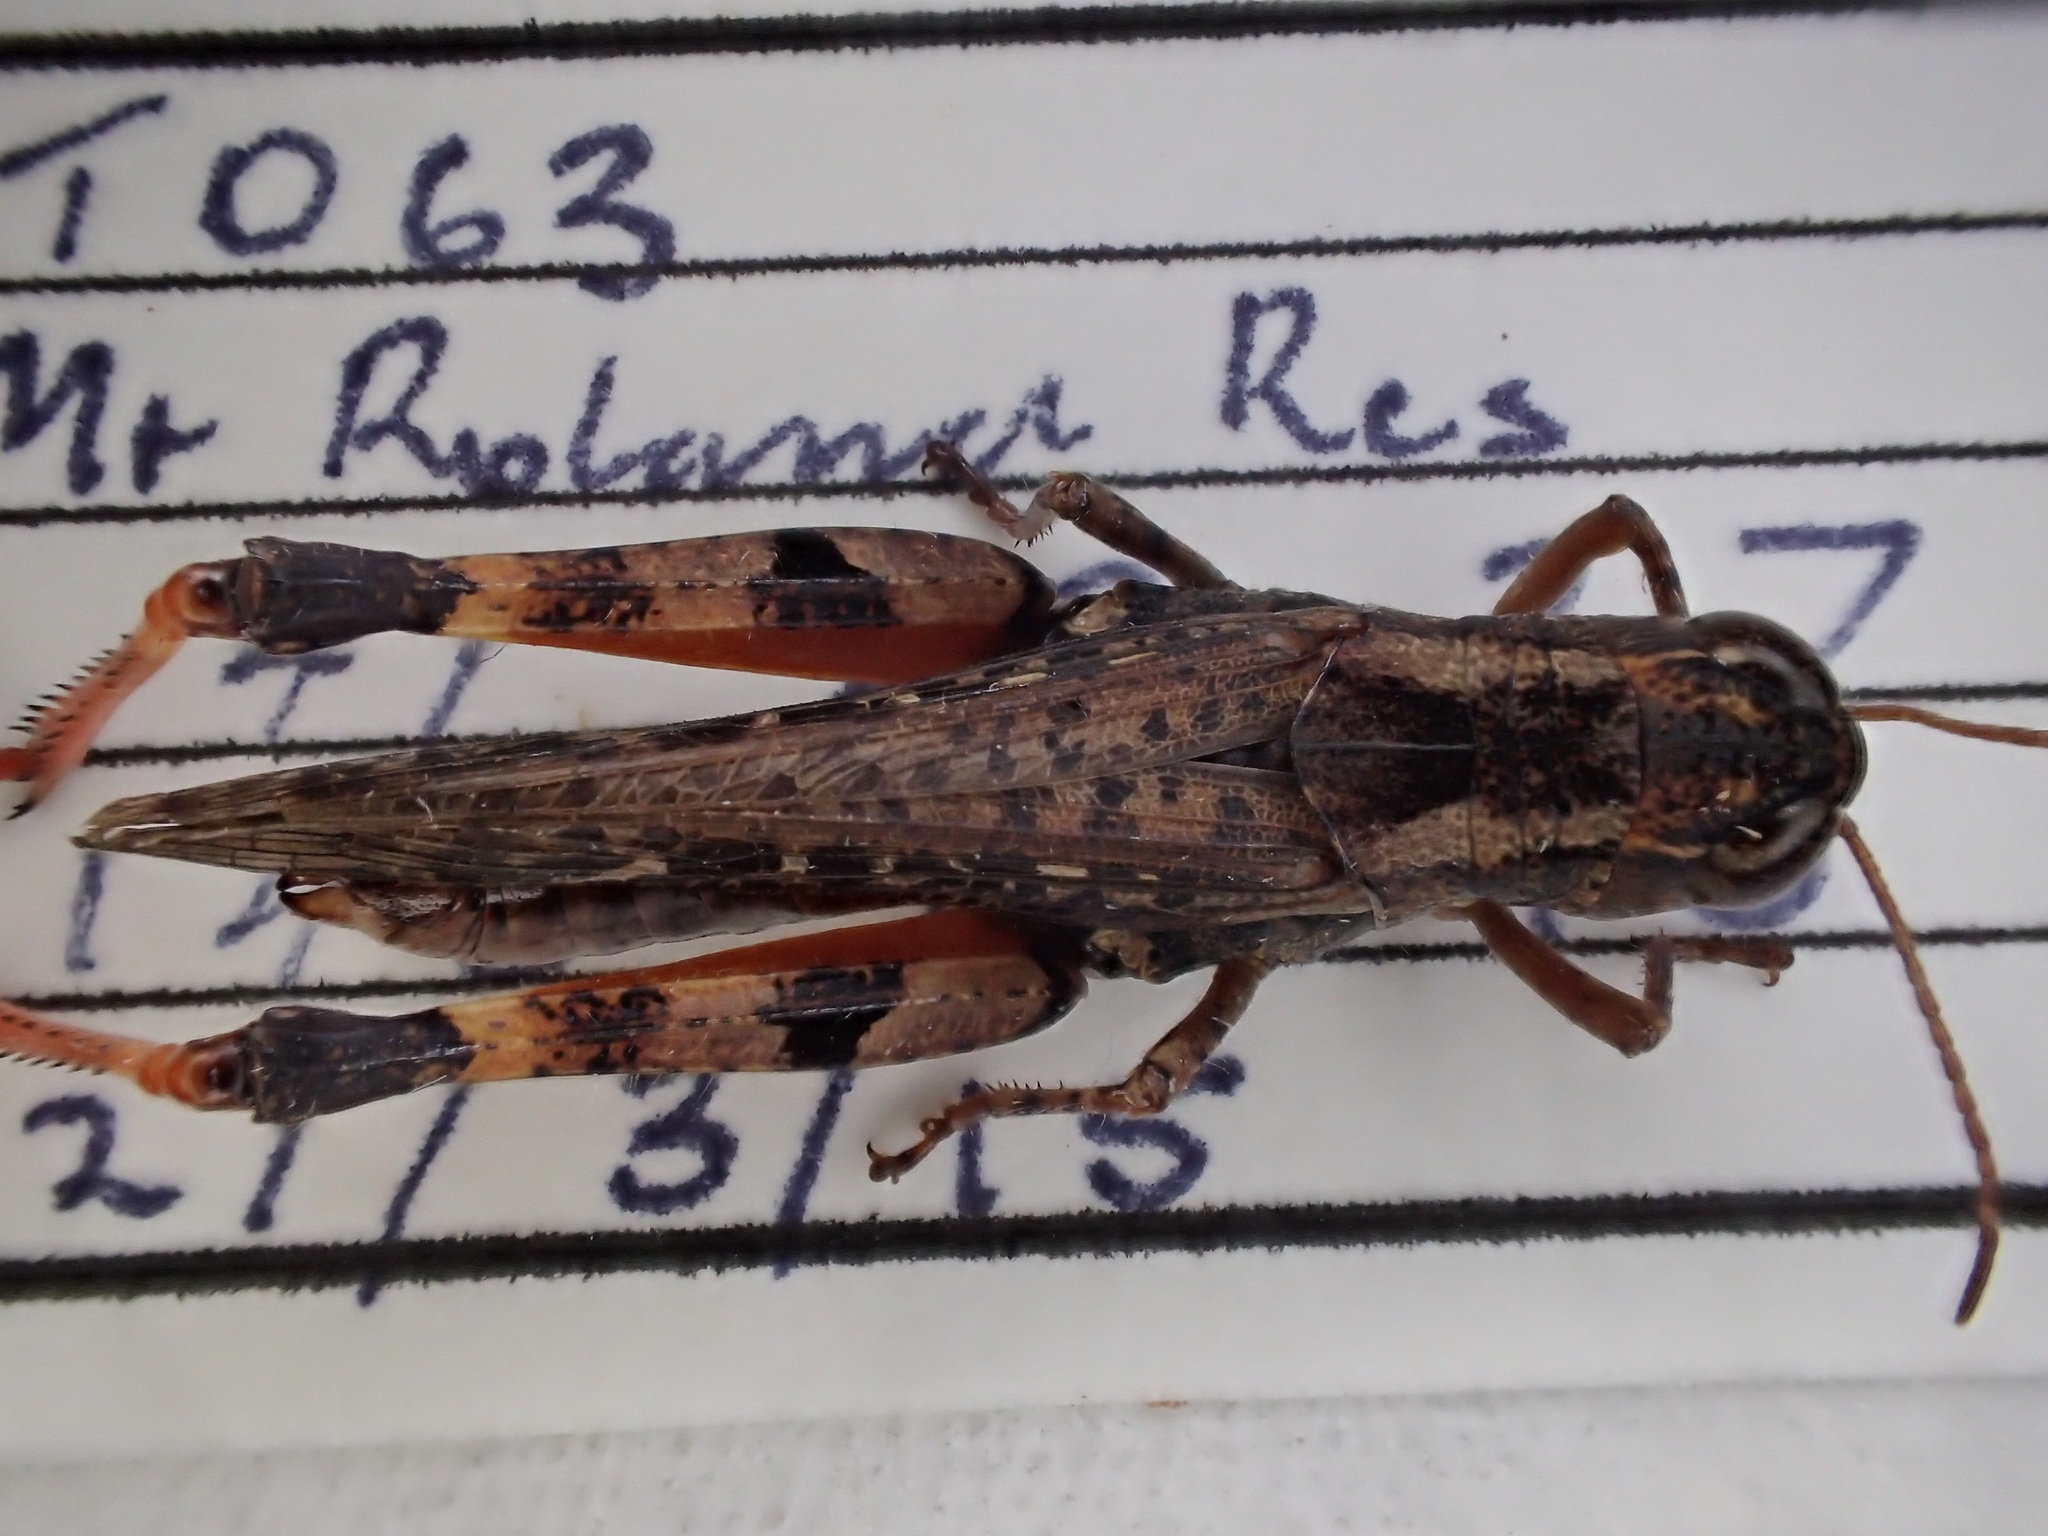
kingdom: Animalia
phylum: Arthropoda
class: Insecta
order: Orthoptera
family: Acrididae
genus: Exarna
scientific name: Exarna includens
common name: Red-legged exarna
